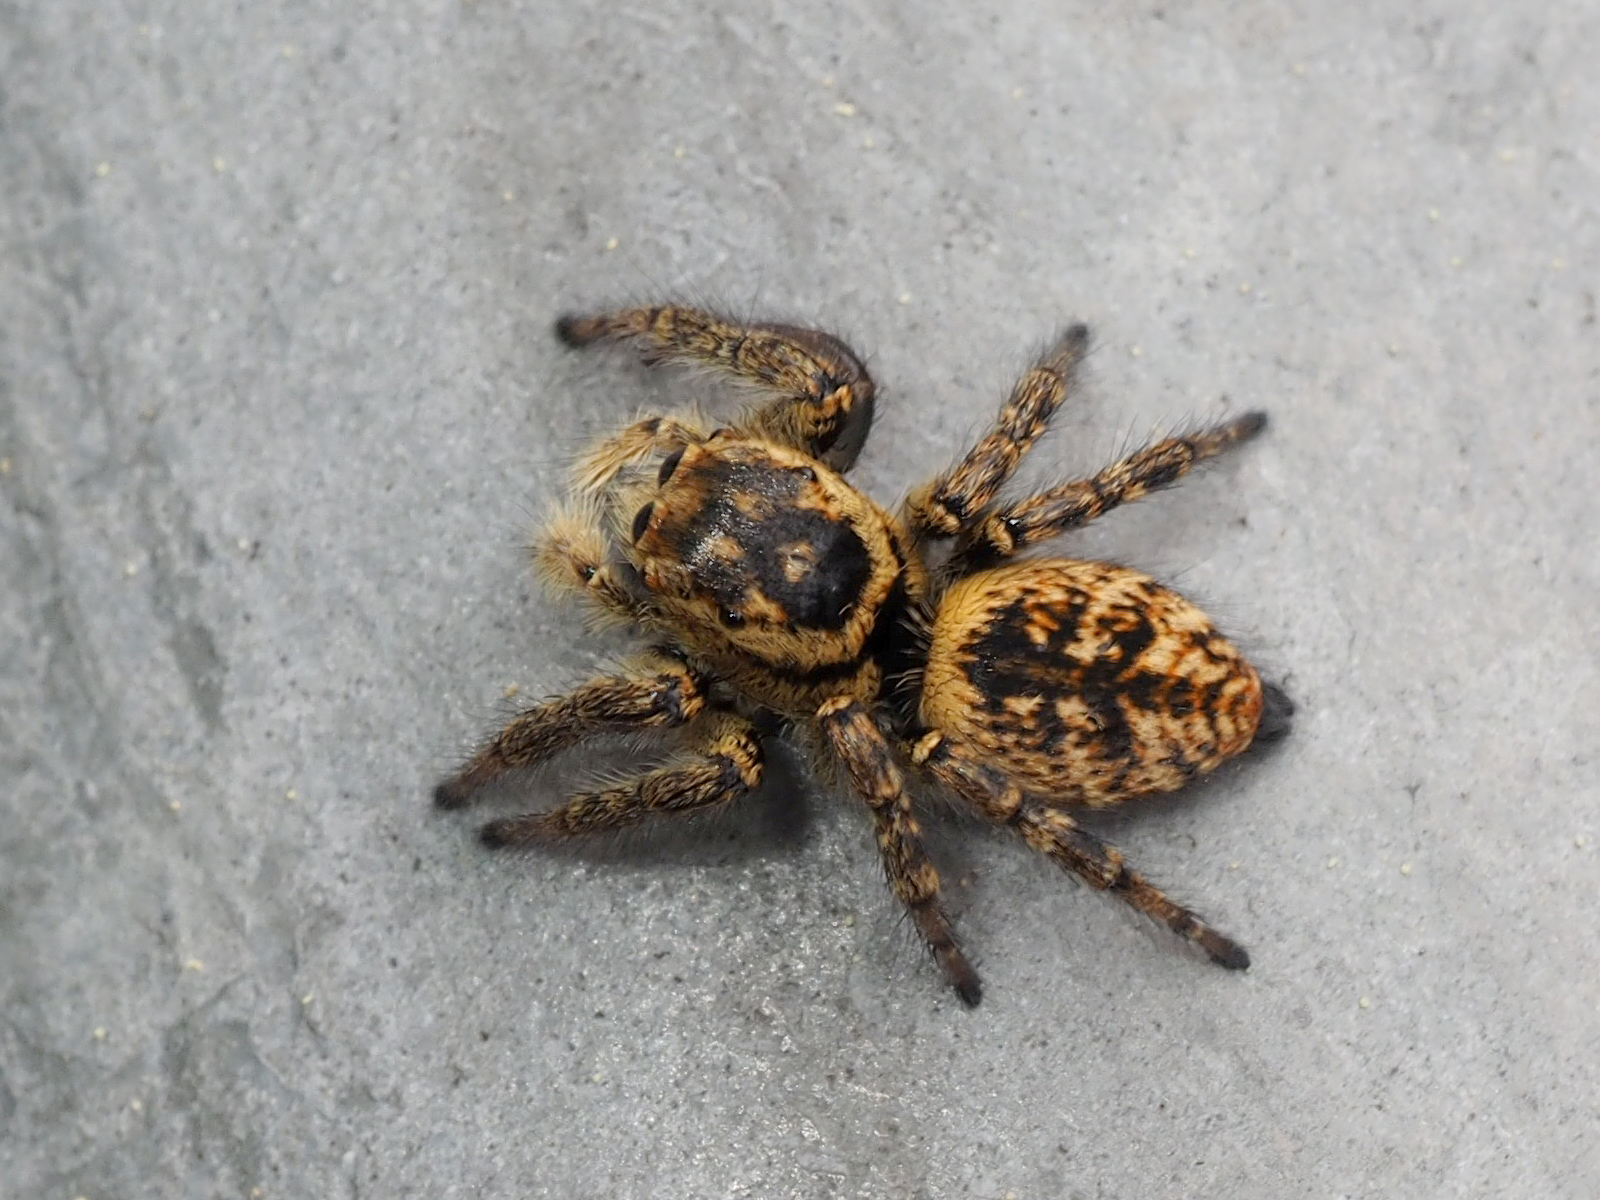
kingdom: Animalia
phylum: Arthropoda
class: Arachnida
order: Araneae
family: Salticidae
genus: Carrhotus
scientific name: Carrhotus xanthogramma
